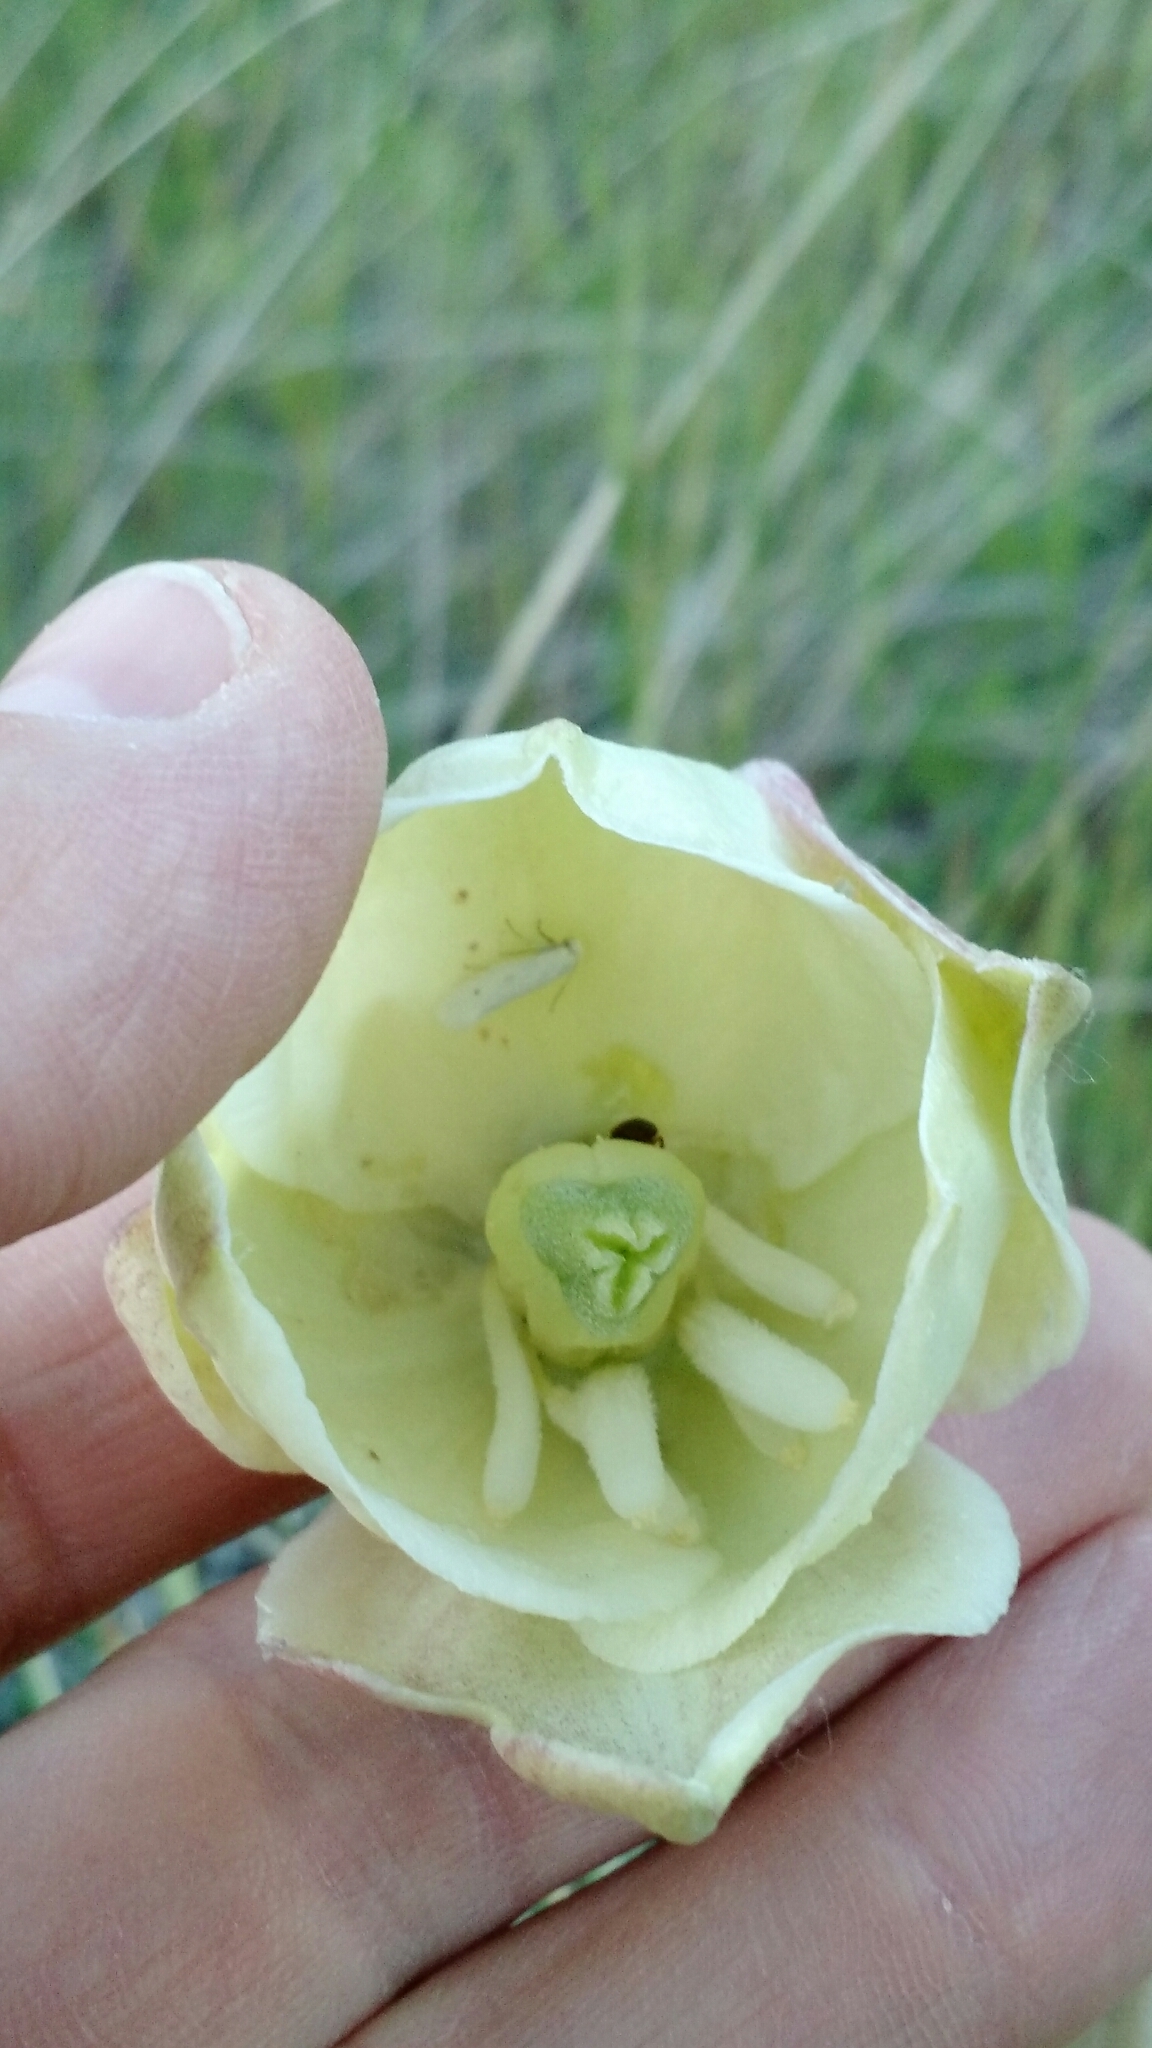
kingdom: Plantae
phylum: Tracheophyta
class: Liliopsida
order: Asparagales
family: Asparagaceae
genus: Yucca
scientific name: Yucca glauca
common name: Great plains yucca
